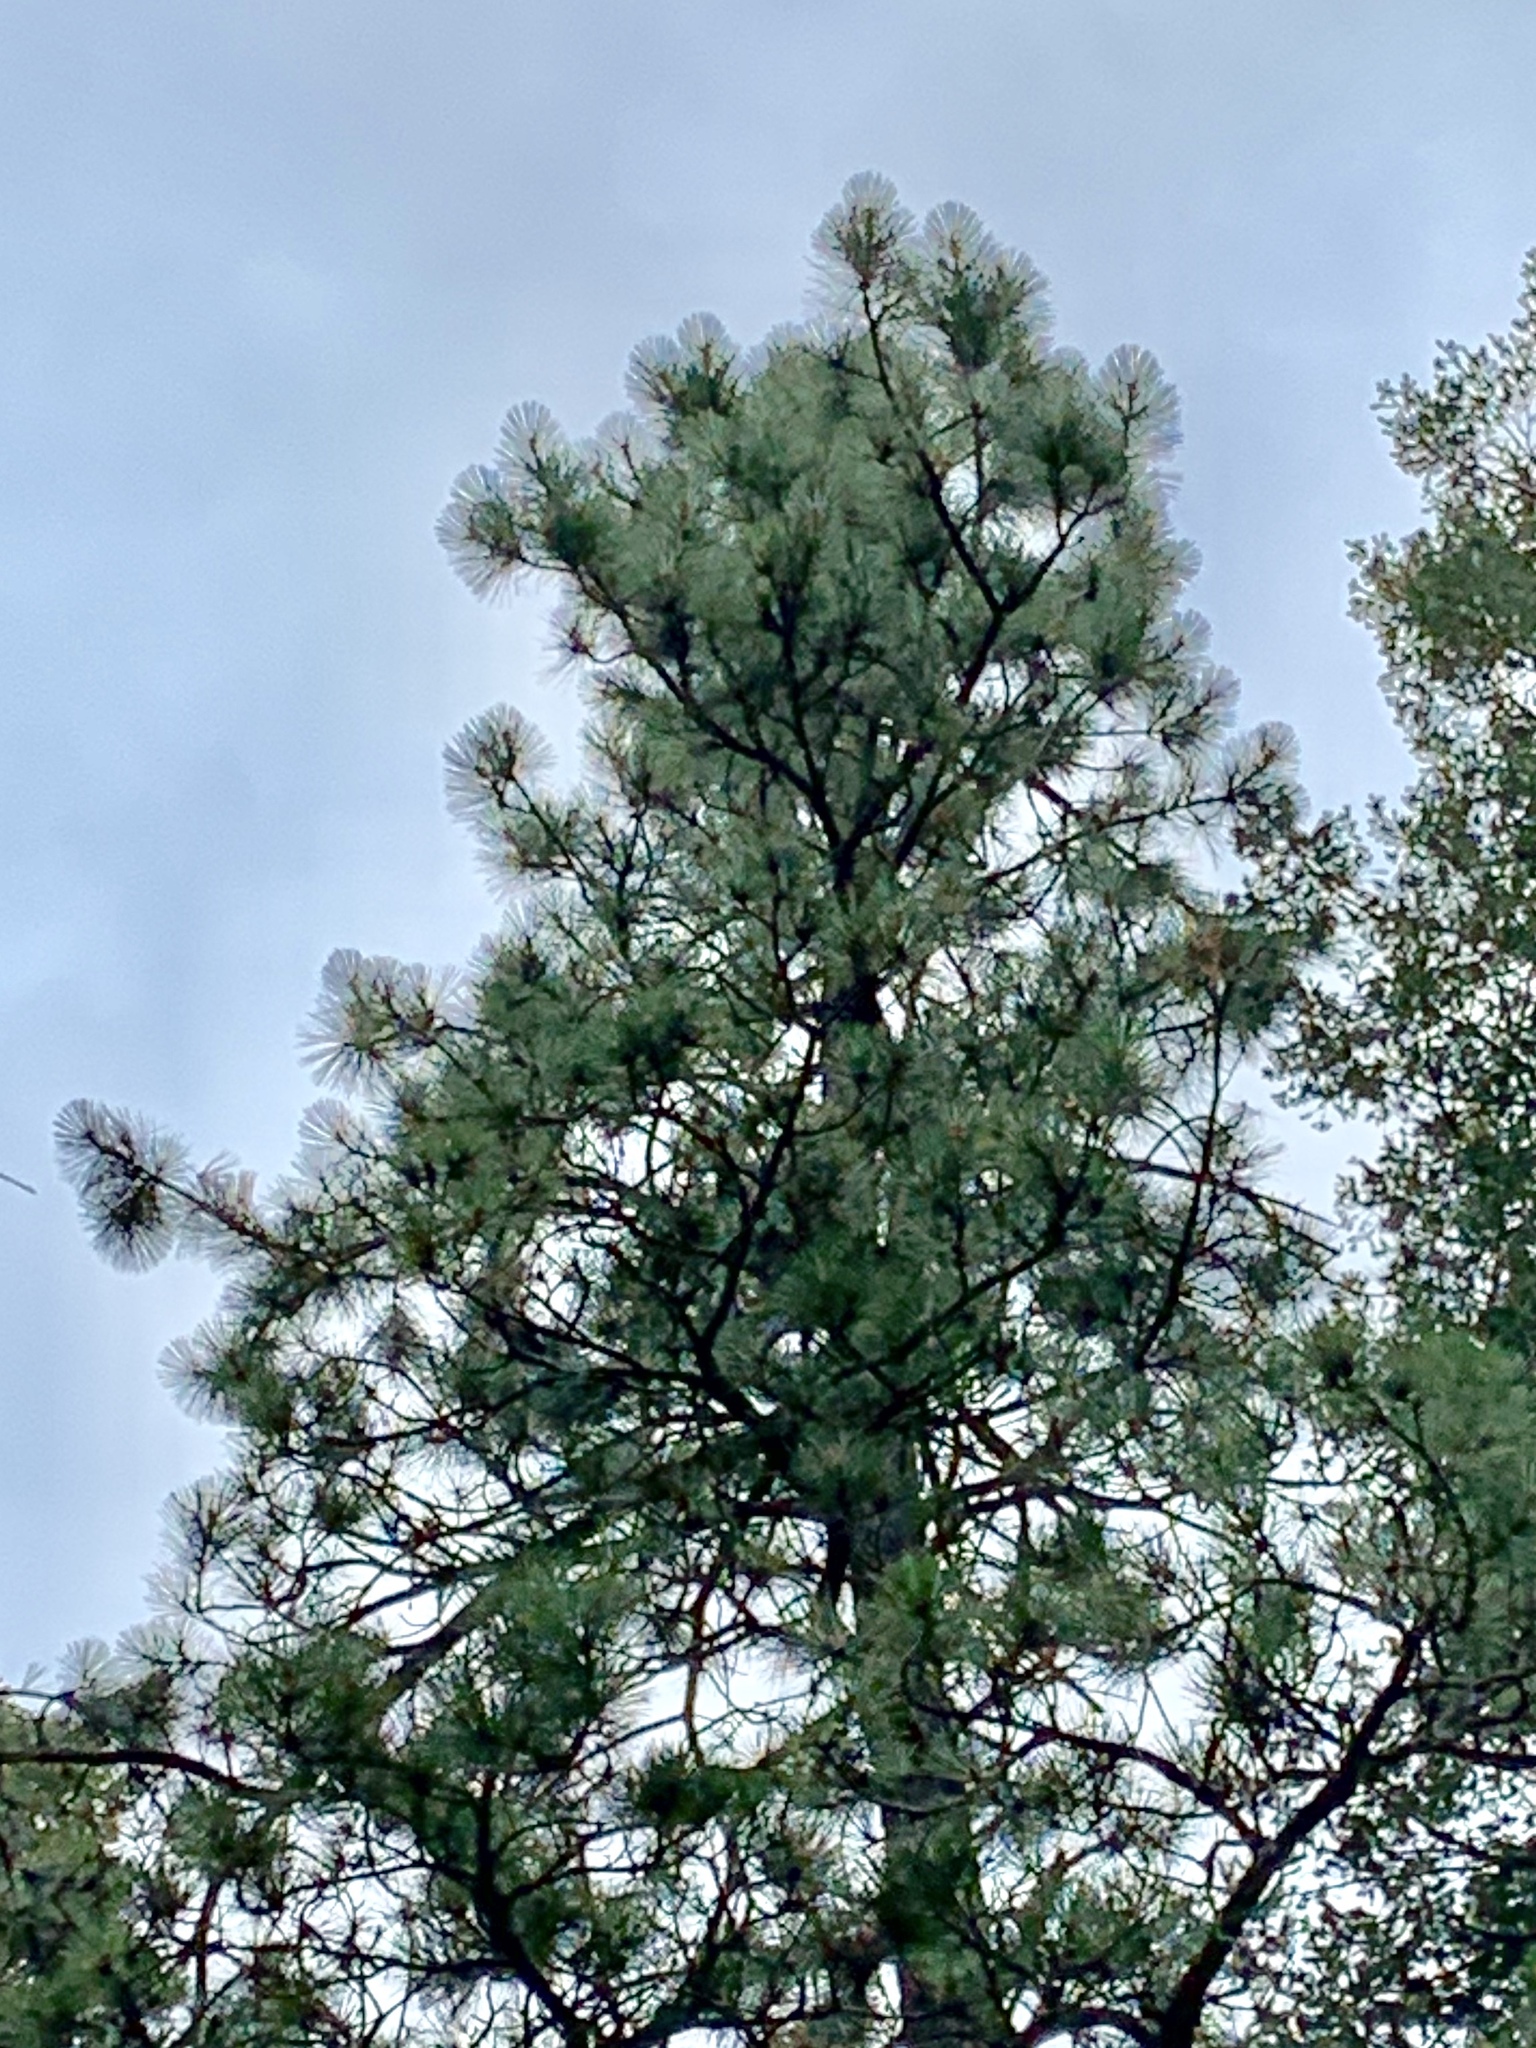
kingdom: Plantae
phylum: Tracheophyta
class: Pinopsida
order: Pinales
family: Pinaceae
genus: Pinus
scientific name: Pinus ponderosa
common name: Western yellow-pine
